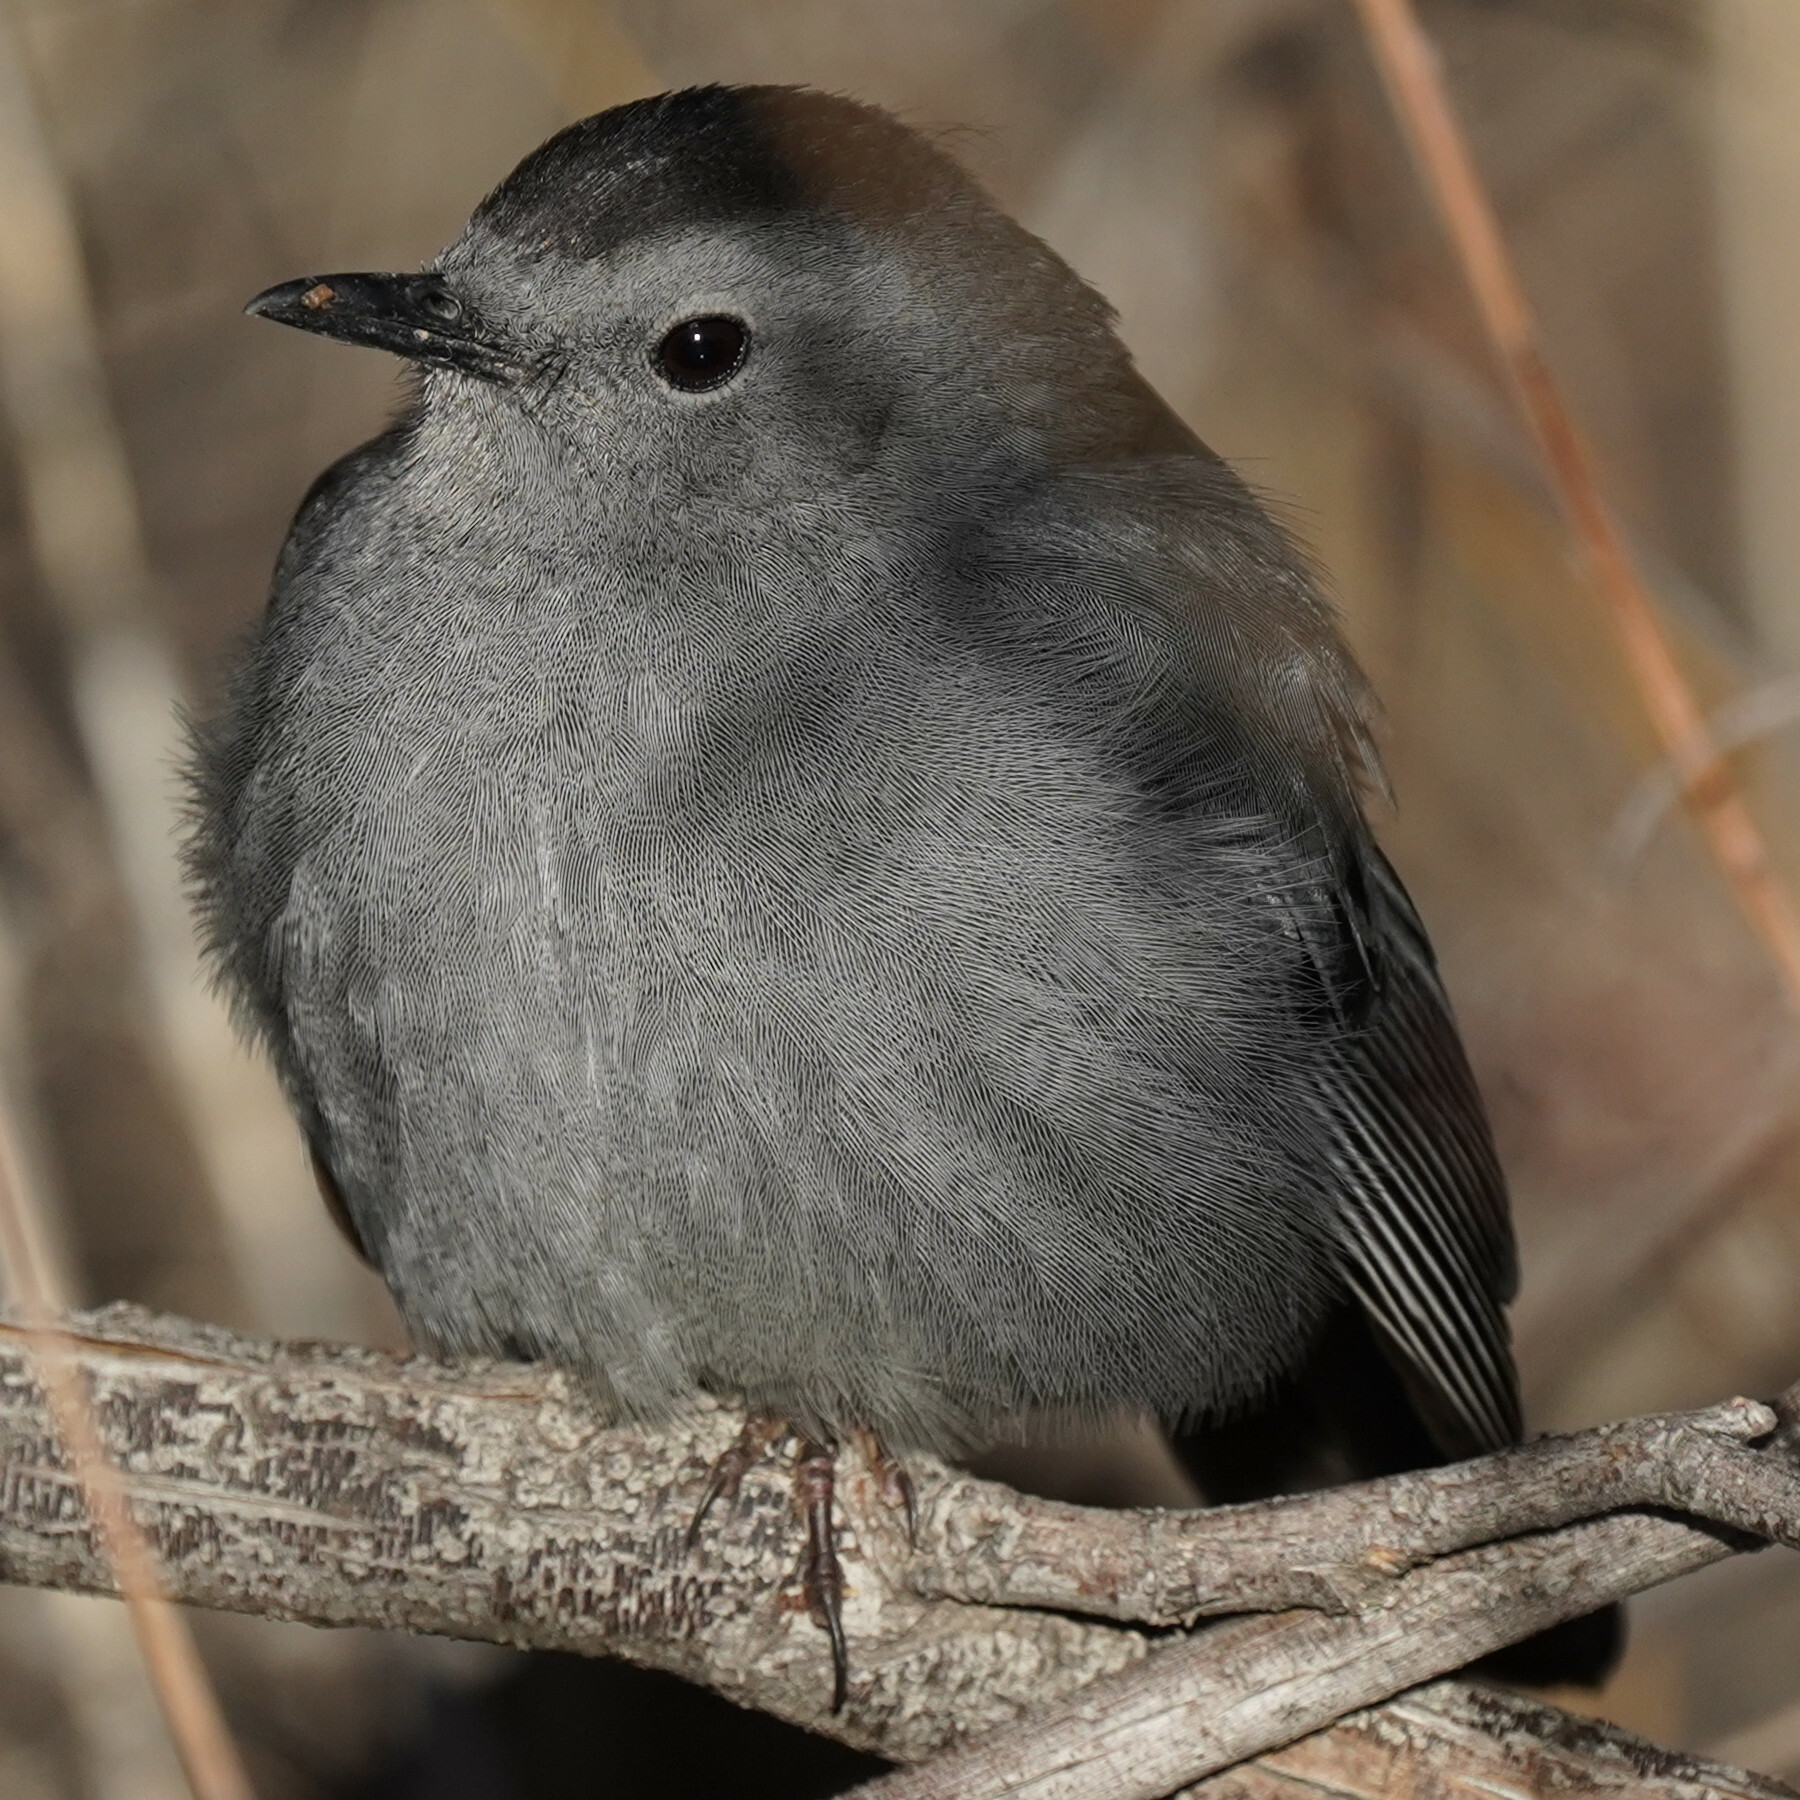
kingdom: Animalia
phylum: Chordata
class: Aves
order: Passeriformes
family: Mimidae
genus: Dumetella
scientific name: Dumetella carolinensis
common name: Gray catbird
